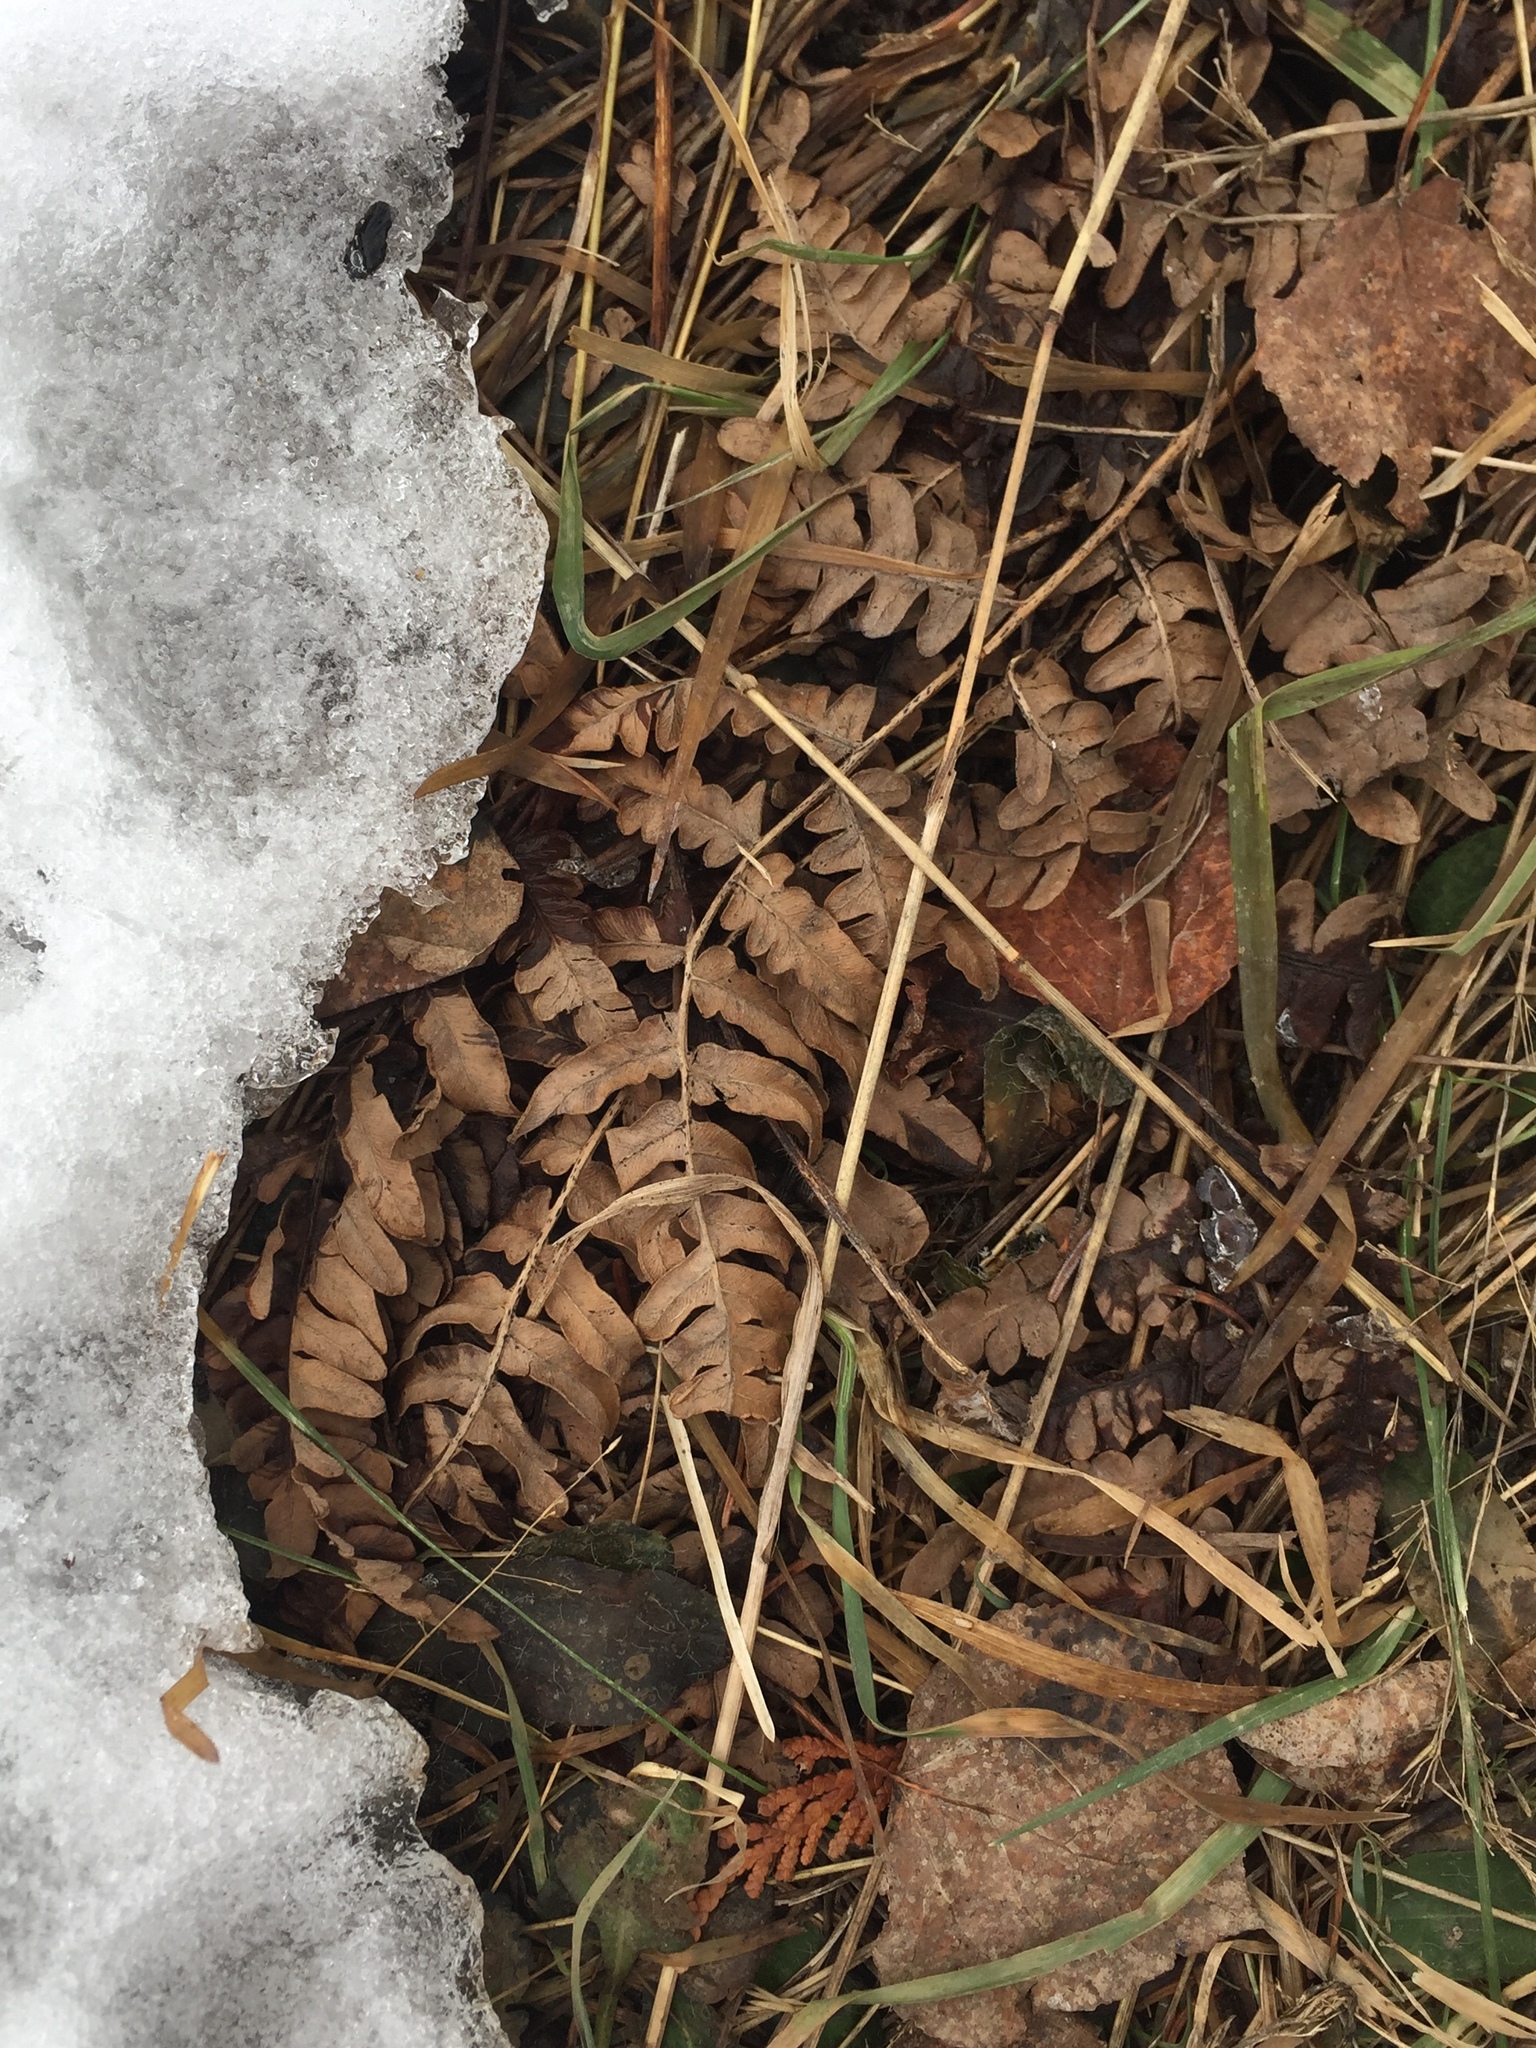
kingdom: Plantae
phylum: Tracheophyta
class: Polypodiopsida
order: Polypodiales
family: Dennstaedtiaceae
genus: Pteridium
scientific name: Pteridium aquilinum
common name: Bracken
